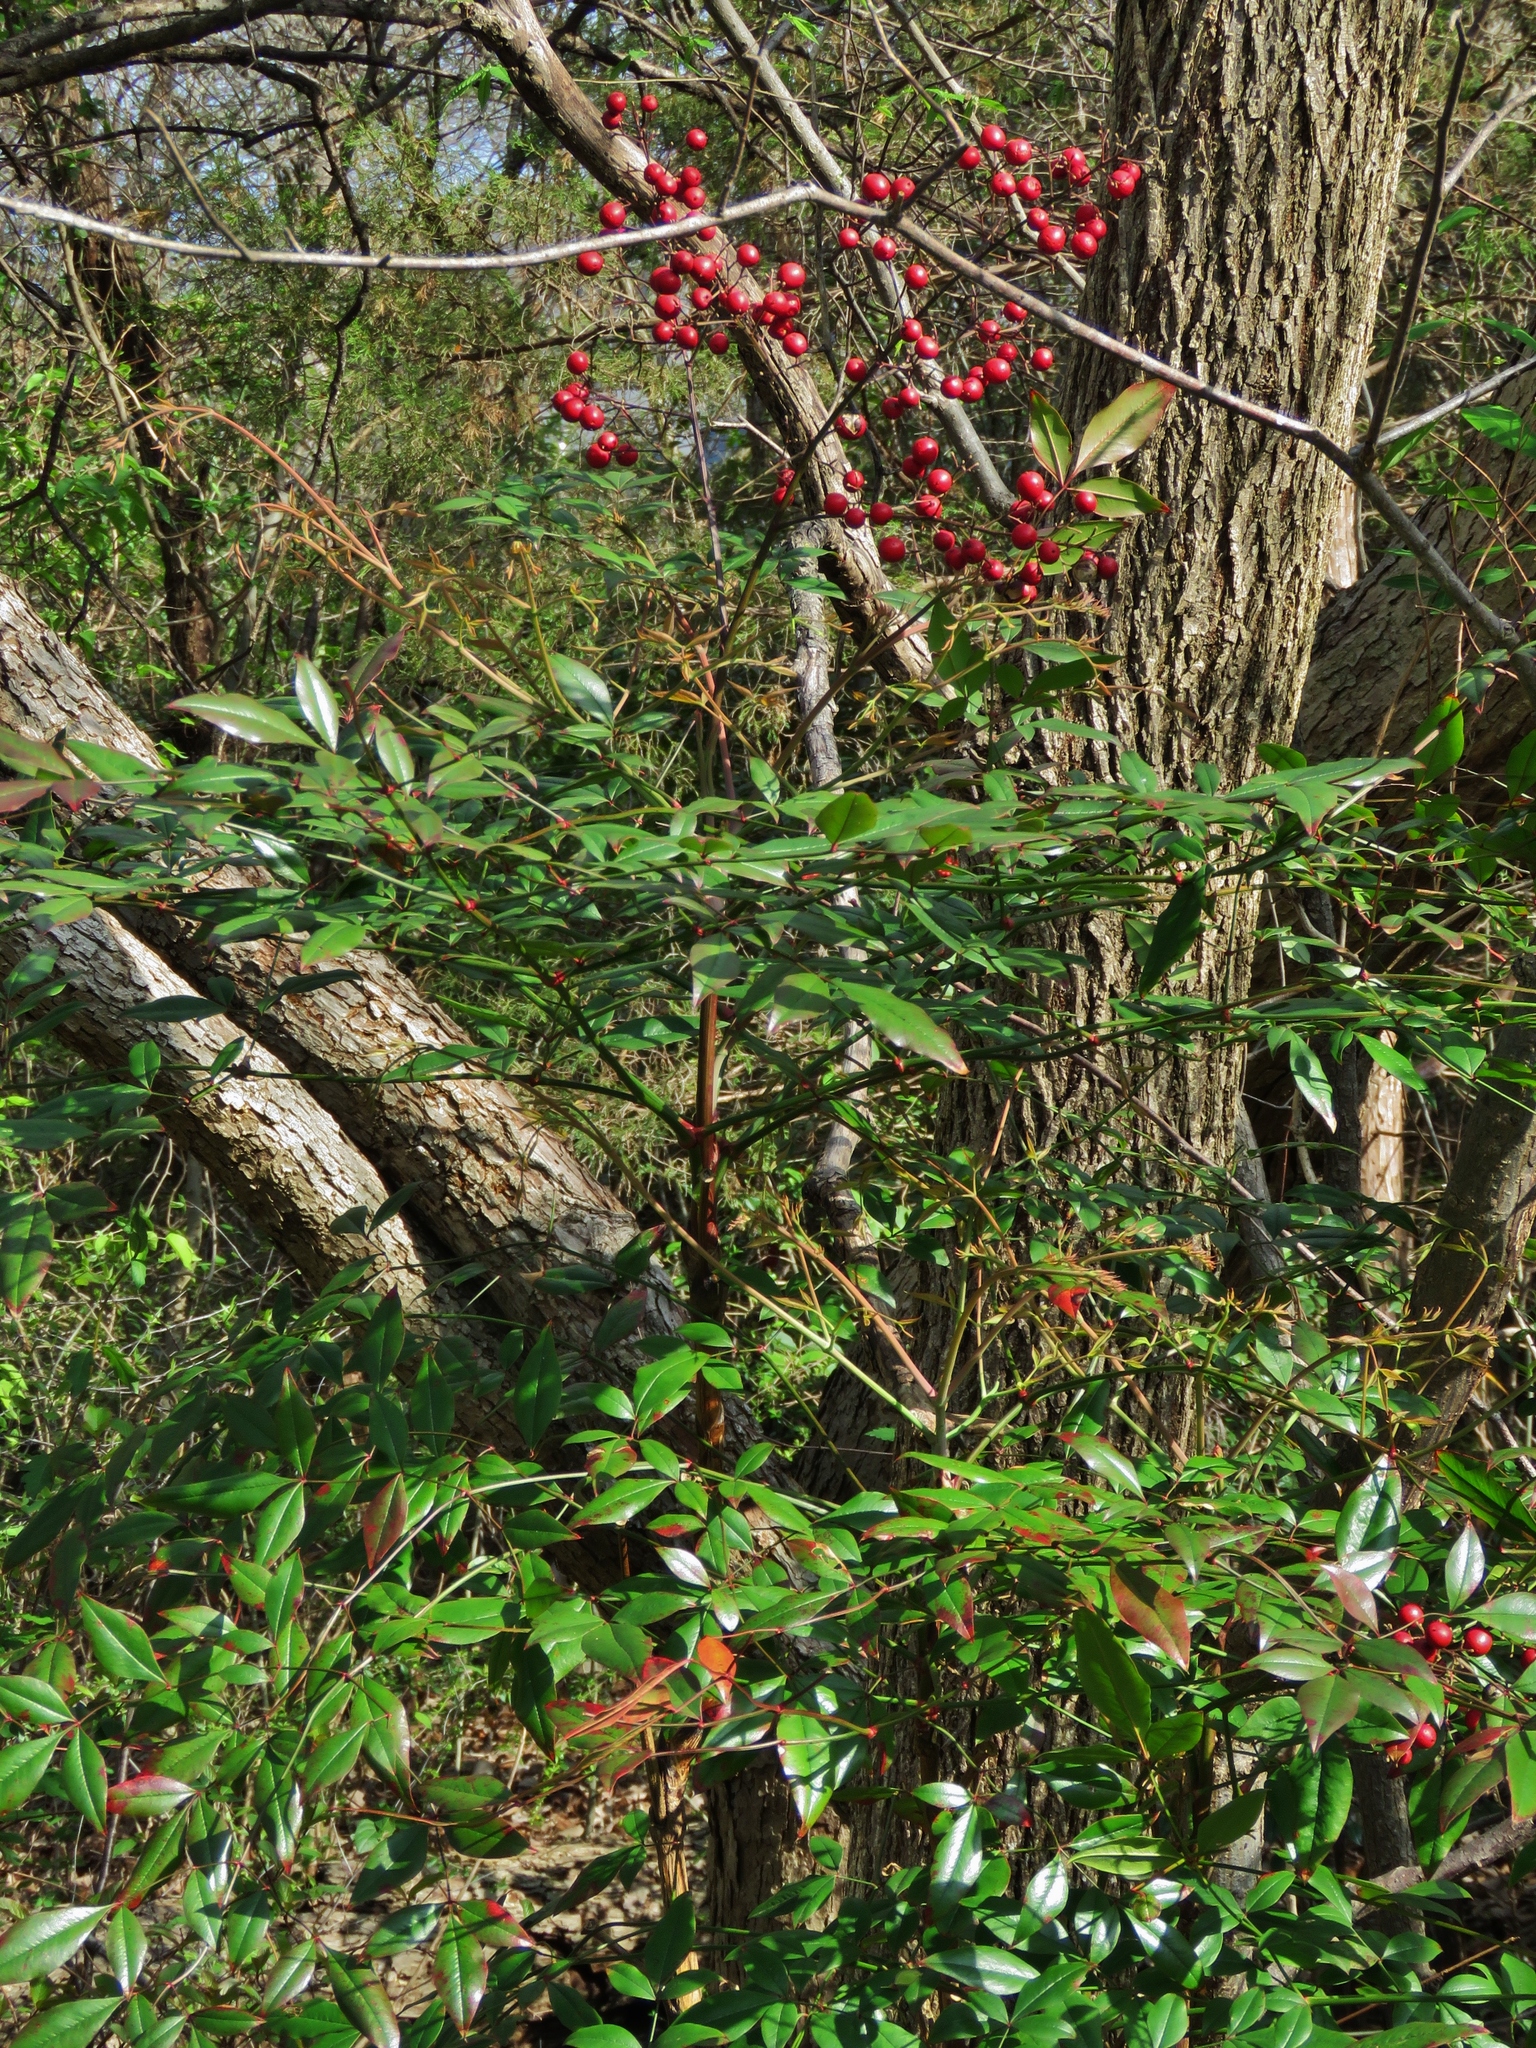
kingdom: Plantae
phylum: Tracheophyta
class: Magnoliopsida
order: Ranunculales
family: Berberidaceae
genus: Nandina
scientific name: Nandina domestica
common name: Sacred bamboo
